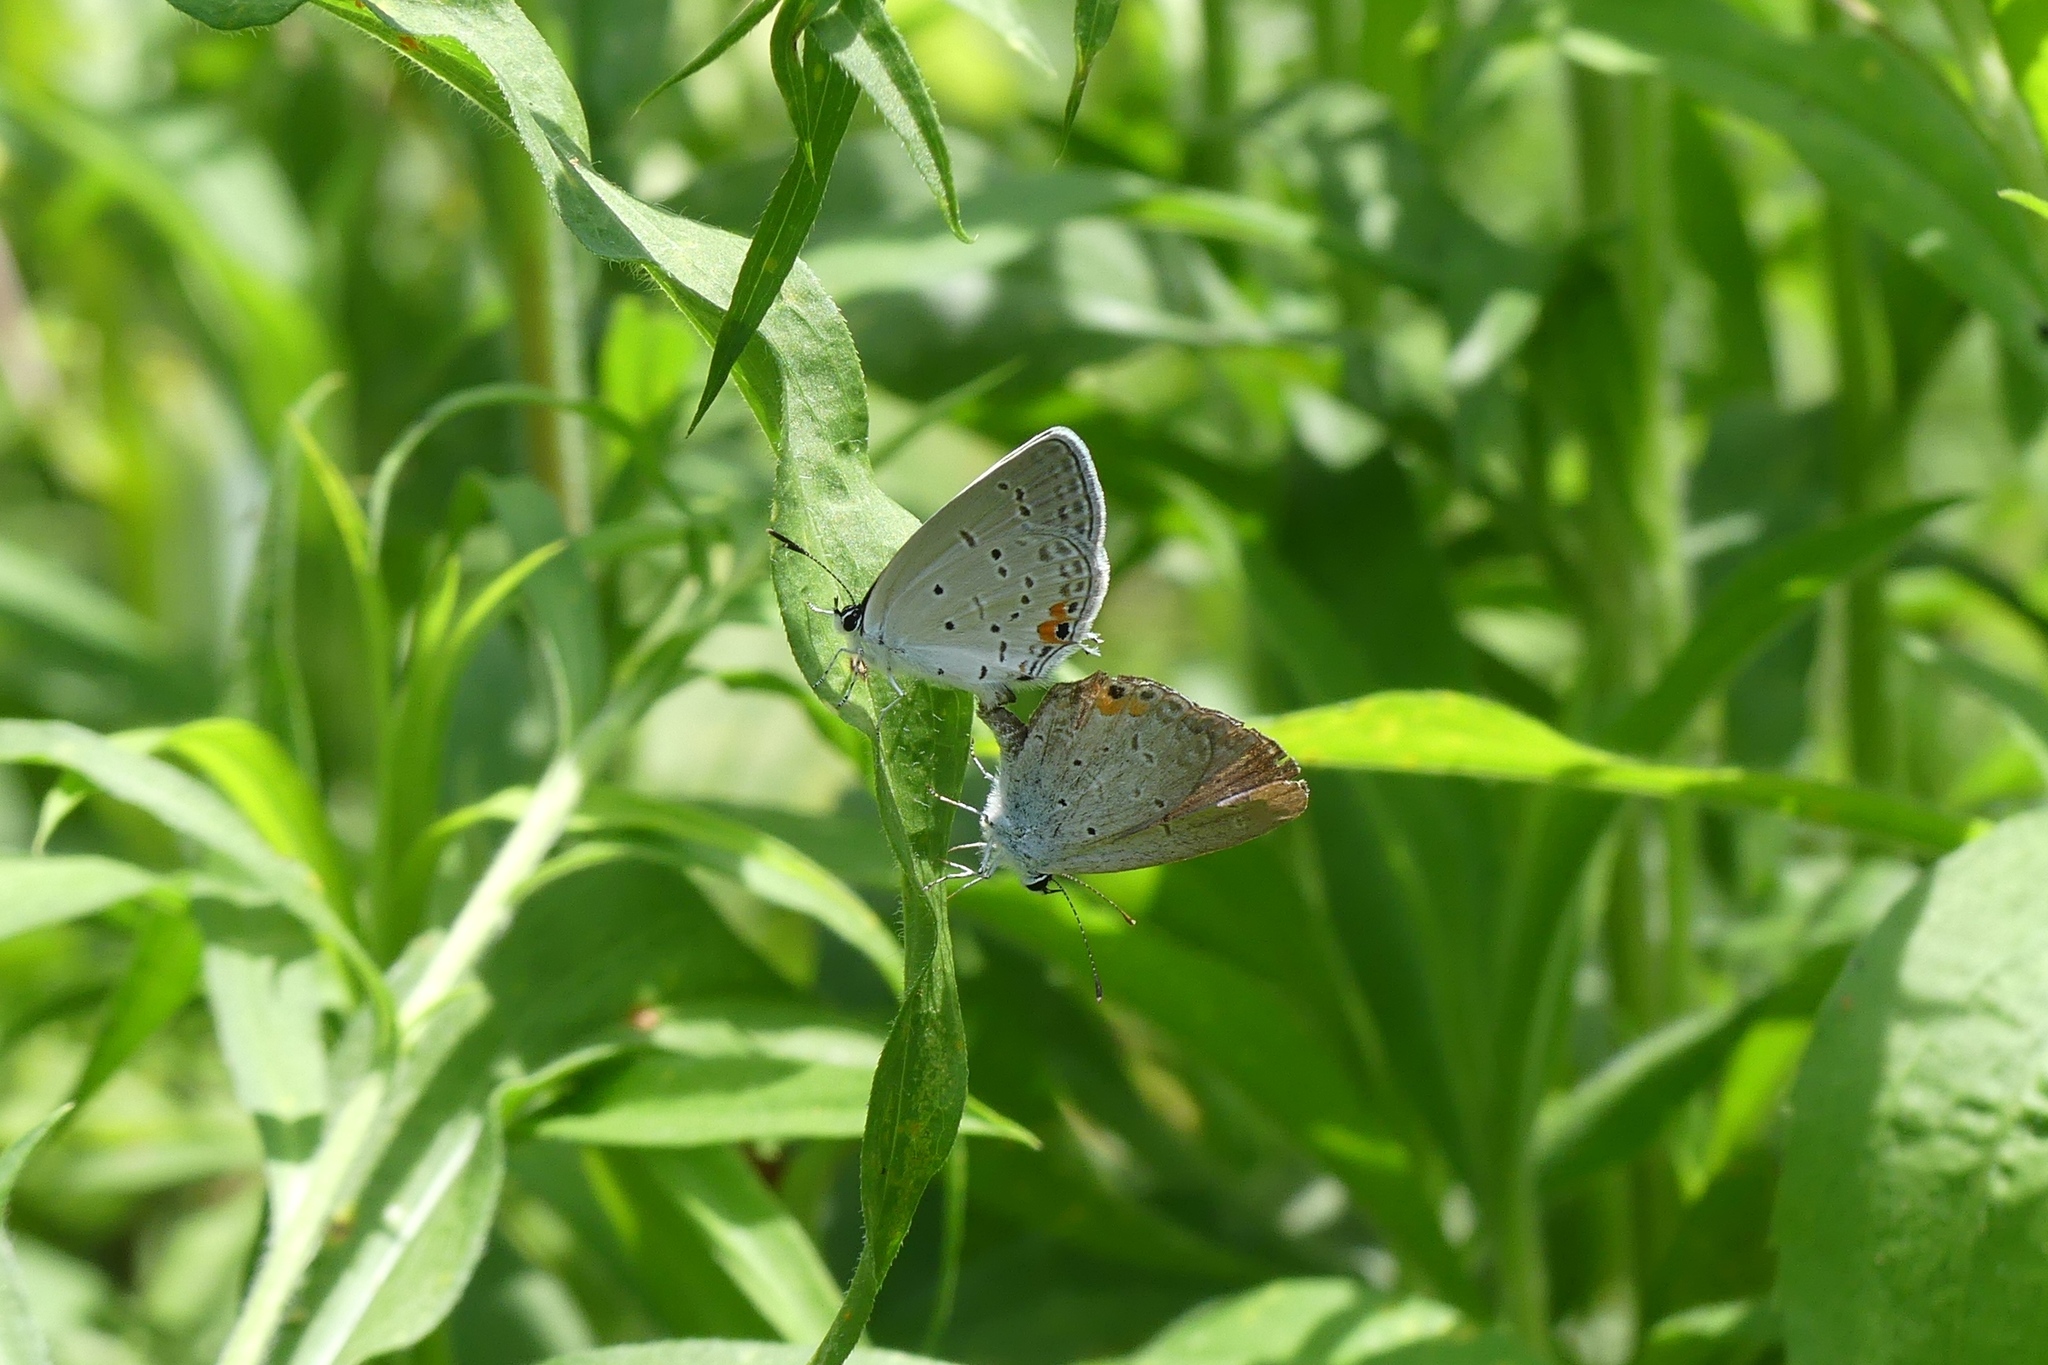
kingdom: Animalia
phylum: Arthropoda
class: Insecta
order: Lepidoptera
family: Lycaenidae
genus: Elkalyce
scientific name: Elkalyce comyntas
